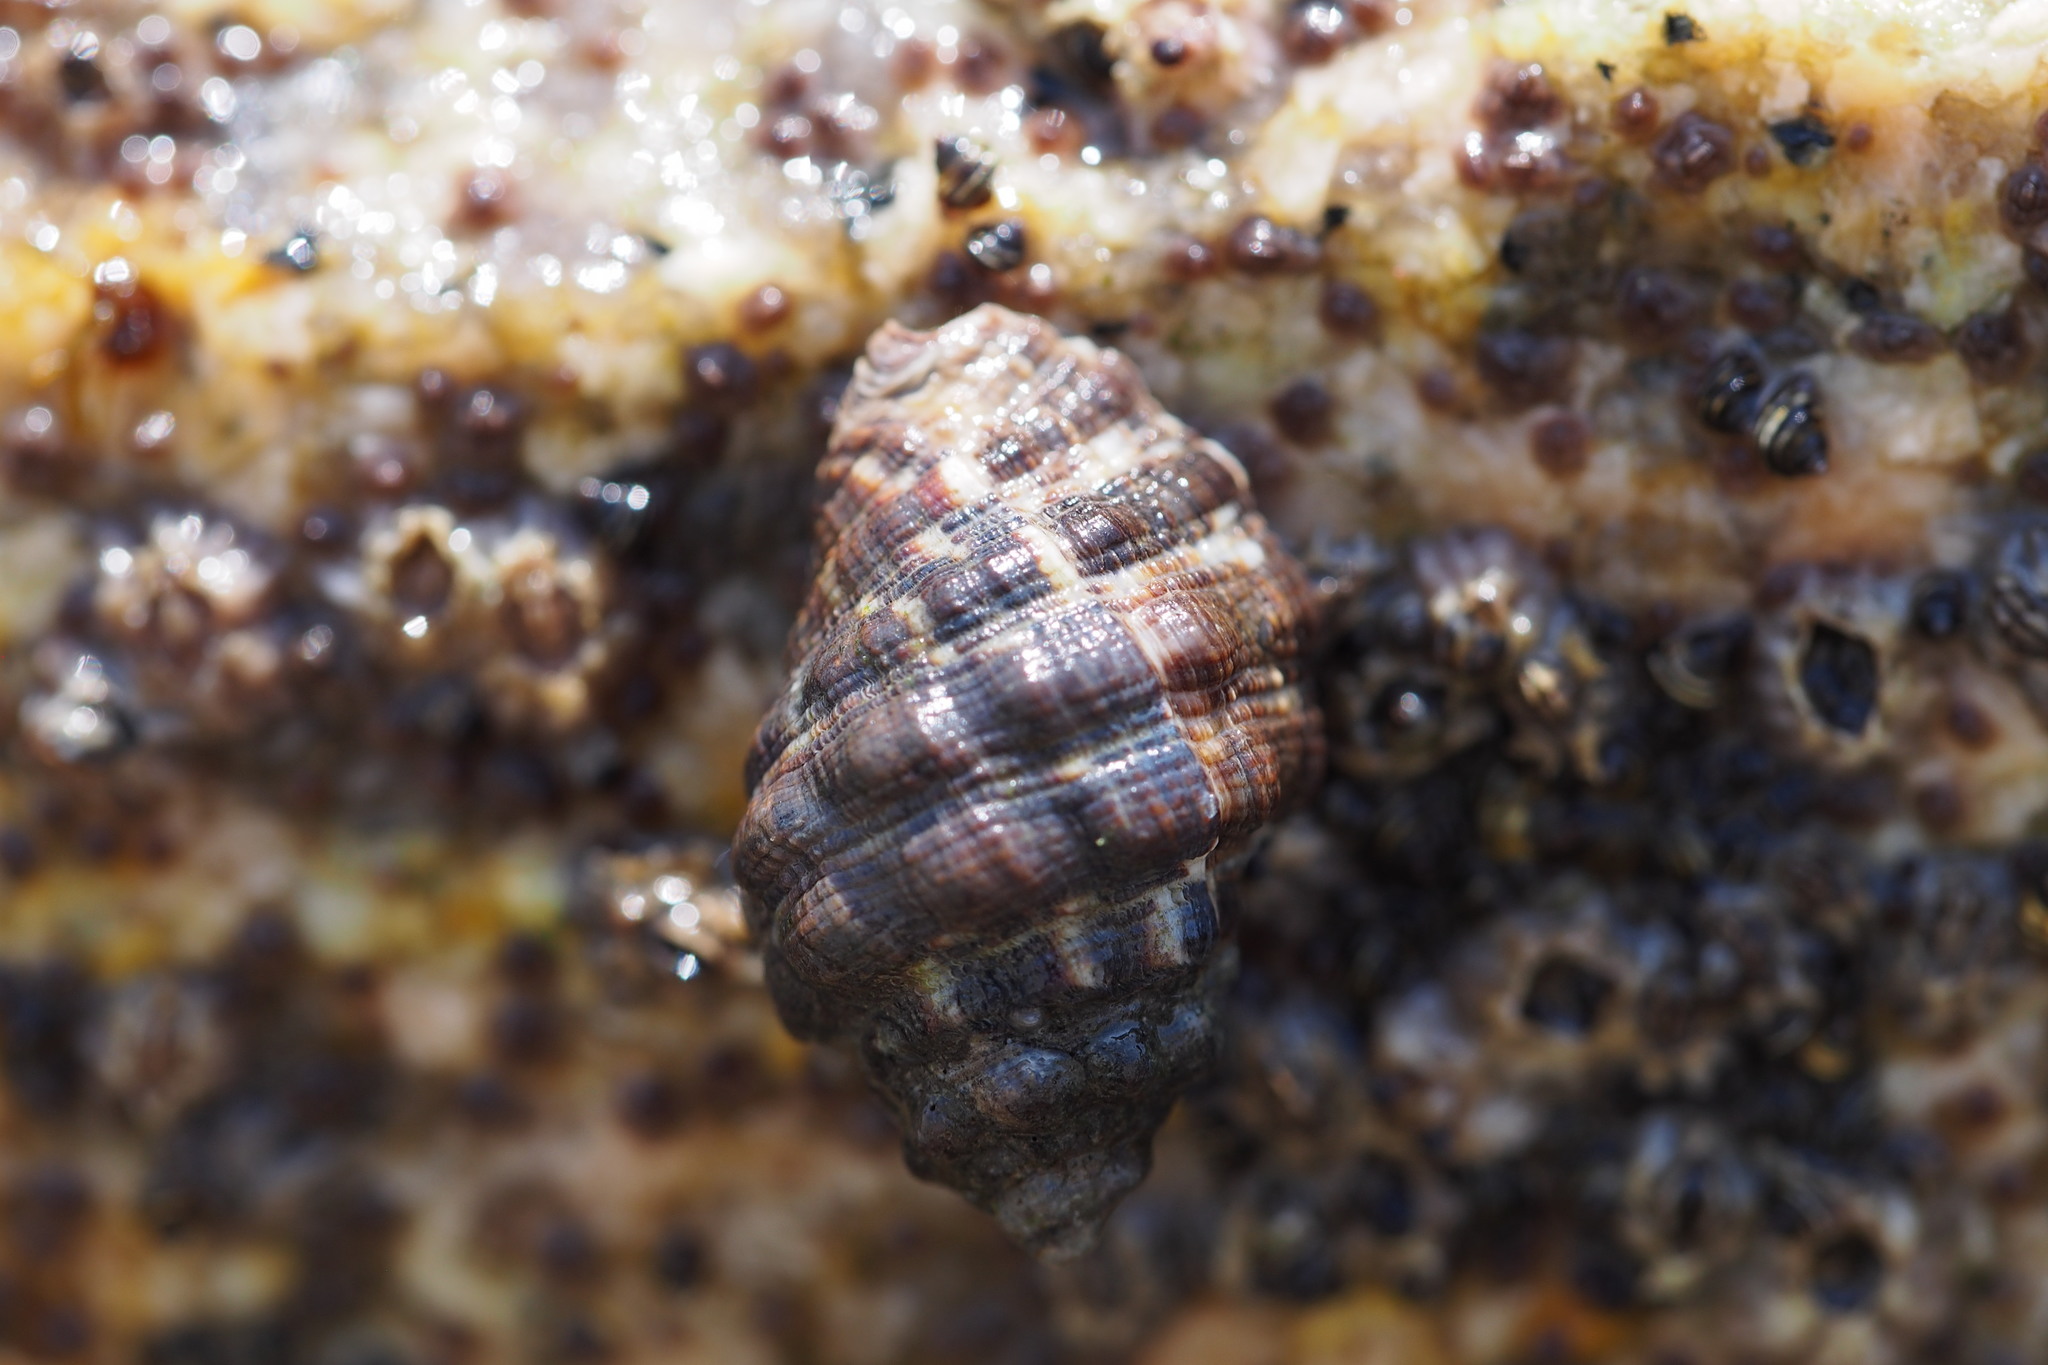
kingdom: Animalia
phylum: Mollusca
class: Gastropoda
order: Neogastropoda
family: Muricidae
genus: Reishia
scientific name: Reishia clavigera
